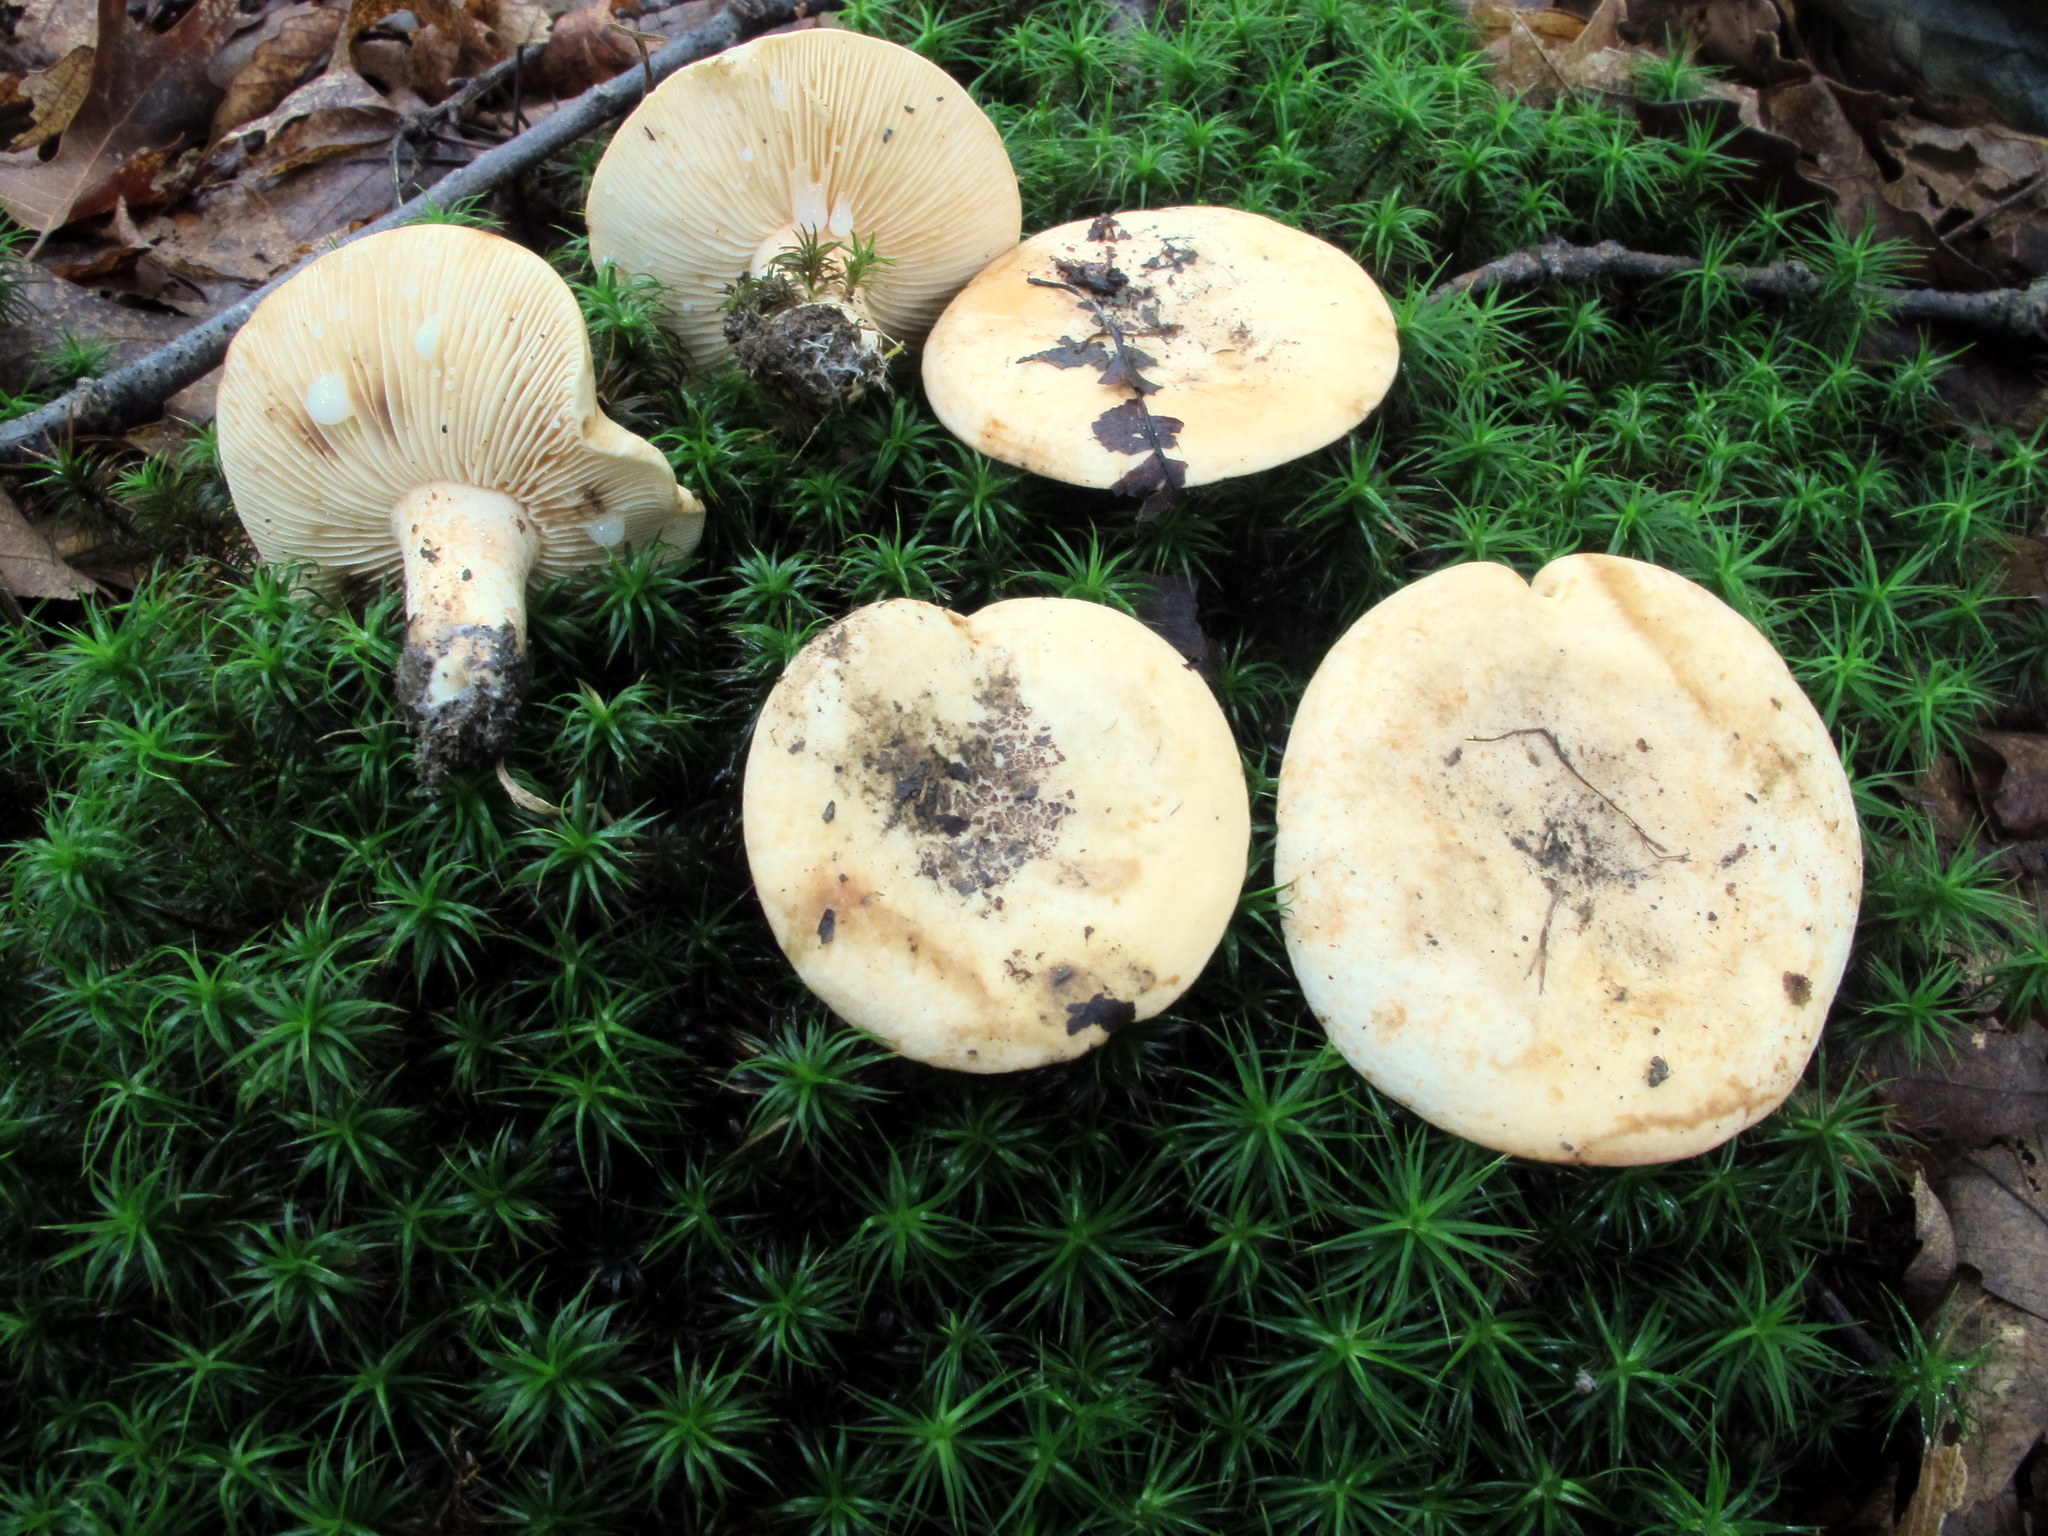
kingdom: Fungi
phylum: Basidiomycota
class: Agaricomycetes
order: Russulales
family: Russulaceae
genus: Lactifluus
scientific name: Lactifluus luteolus
